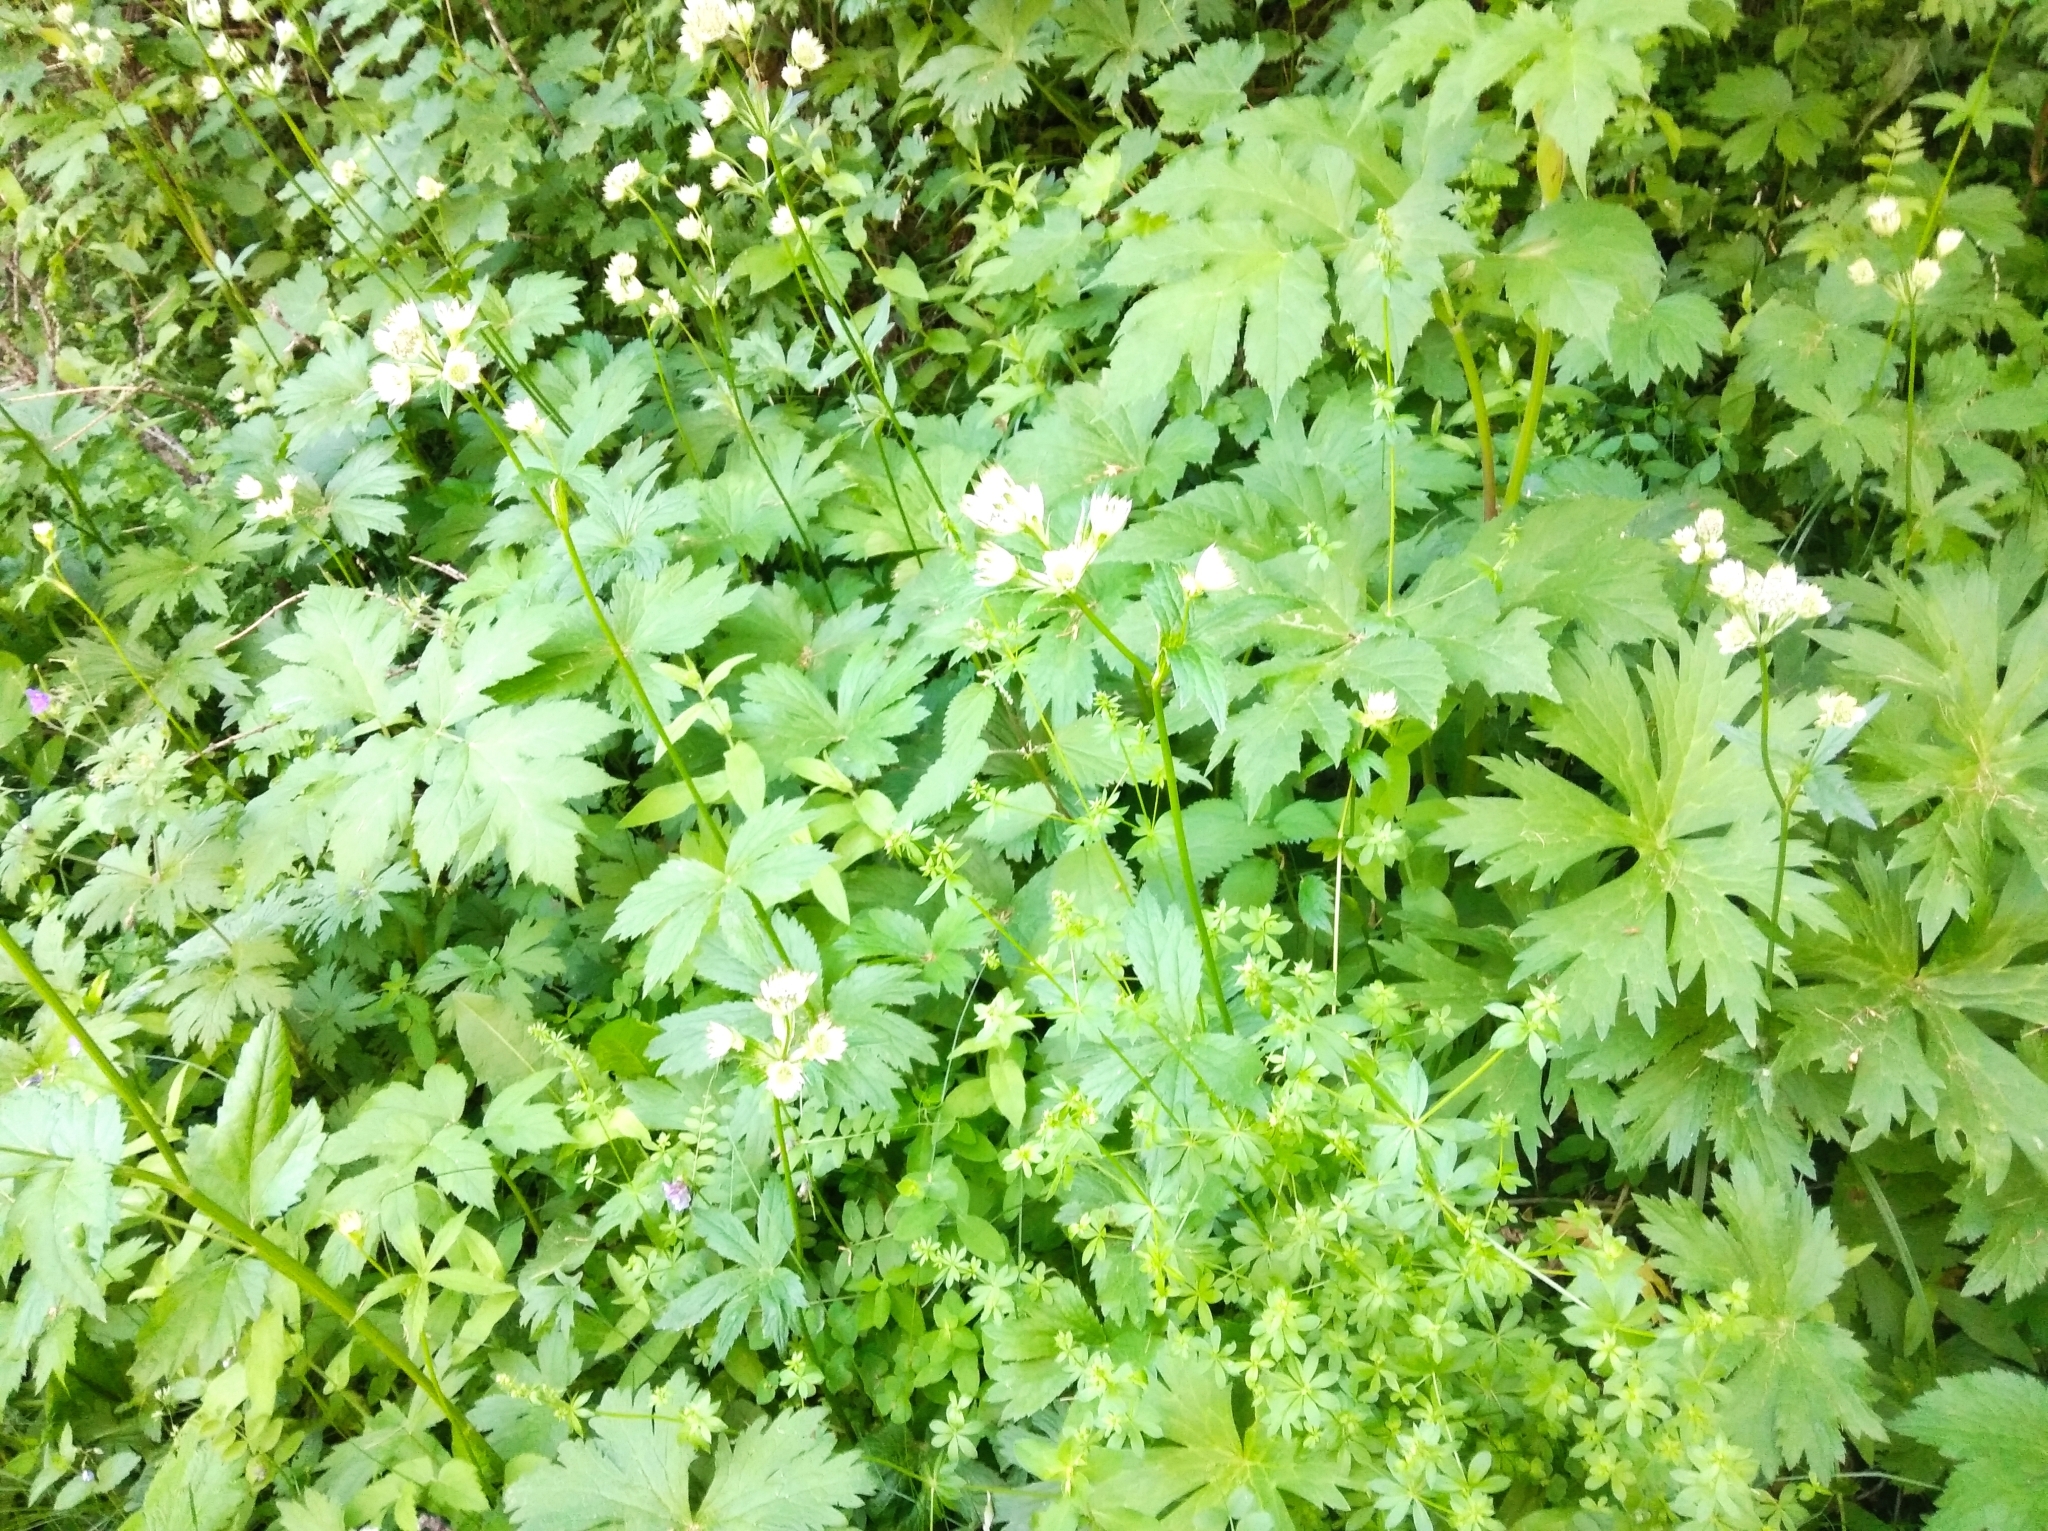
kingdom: Plantae
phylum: Tracheophyta
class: Magnoliopsida
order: Apiales
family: Apiaceae
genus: Astrantia
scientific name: Astrantia major
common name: Greater masterwort
